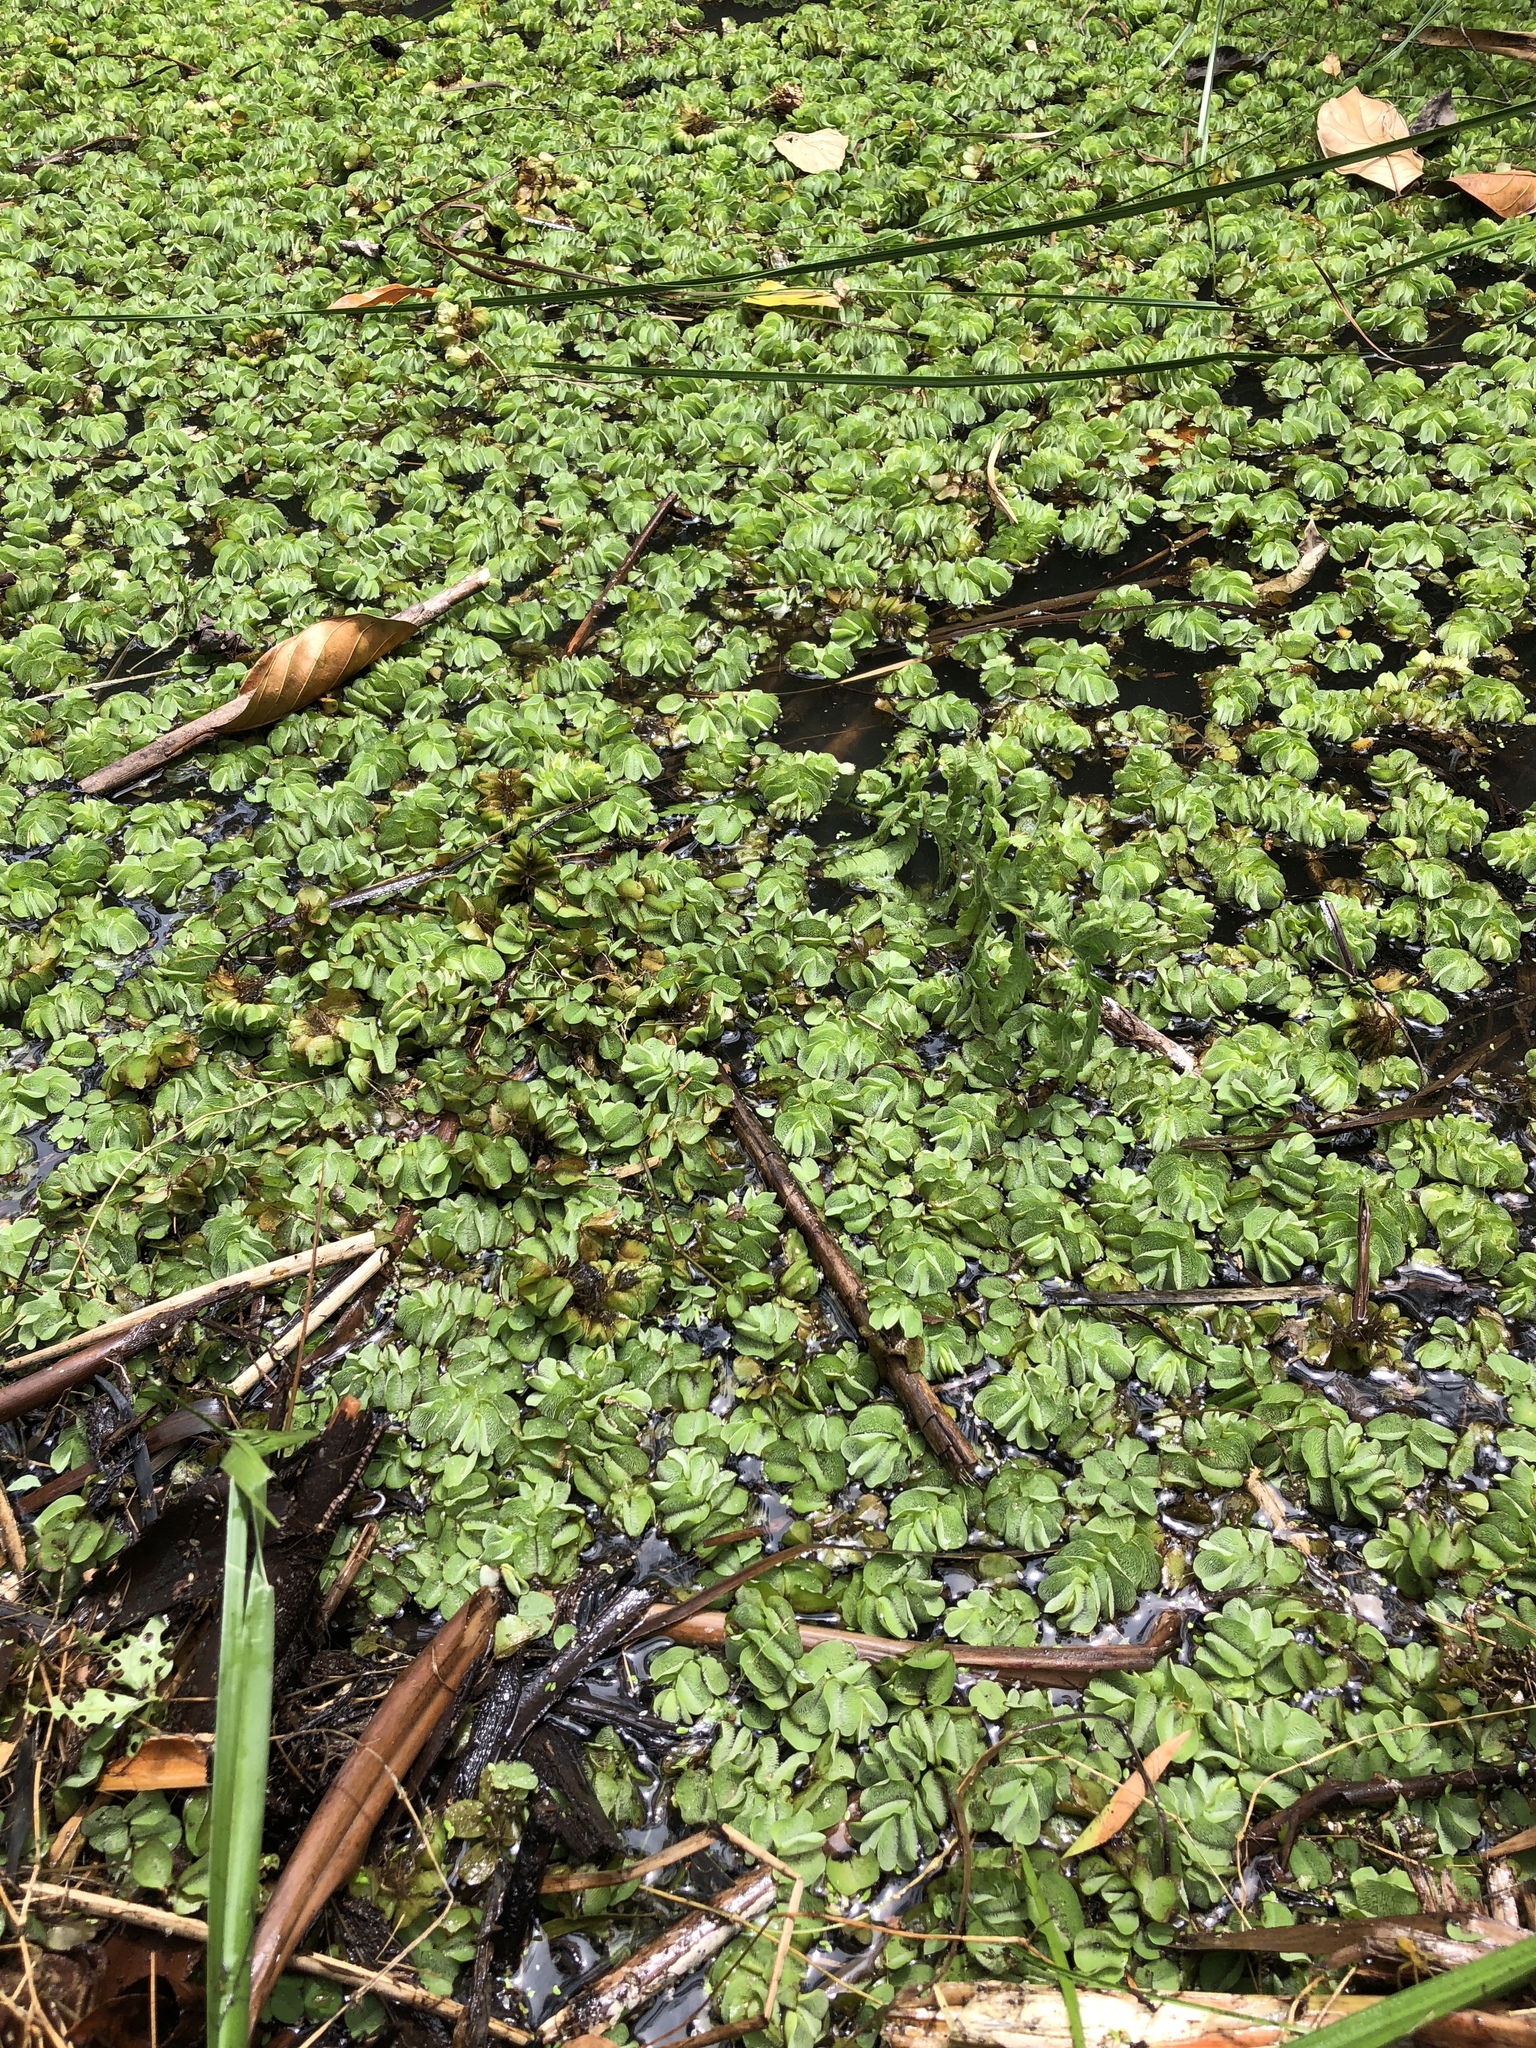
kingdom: Plantae
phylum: Tracheophyta
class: Polypodiopsida
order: Salviniales
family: Salviniaceae
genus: Salvinia
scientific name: Salvinia molesta
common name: Kariba weed
